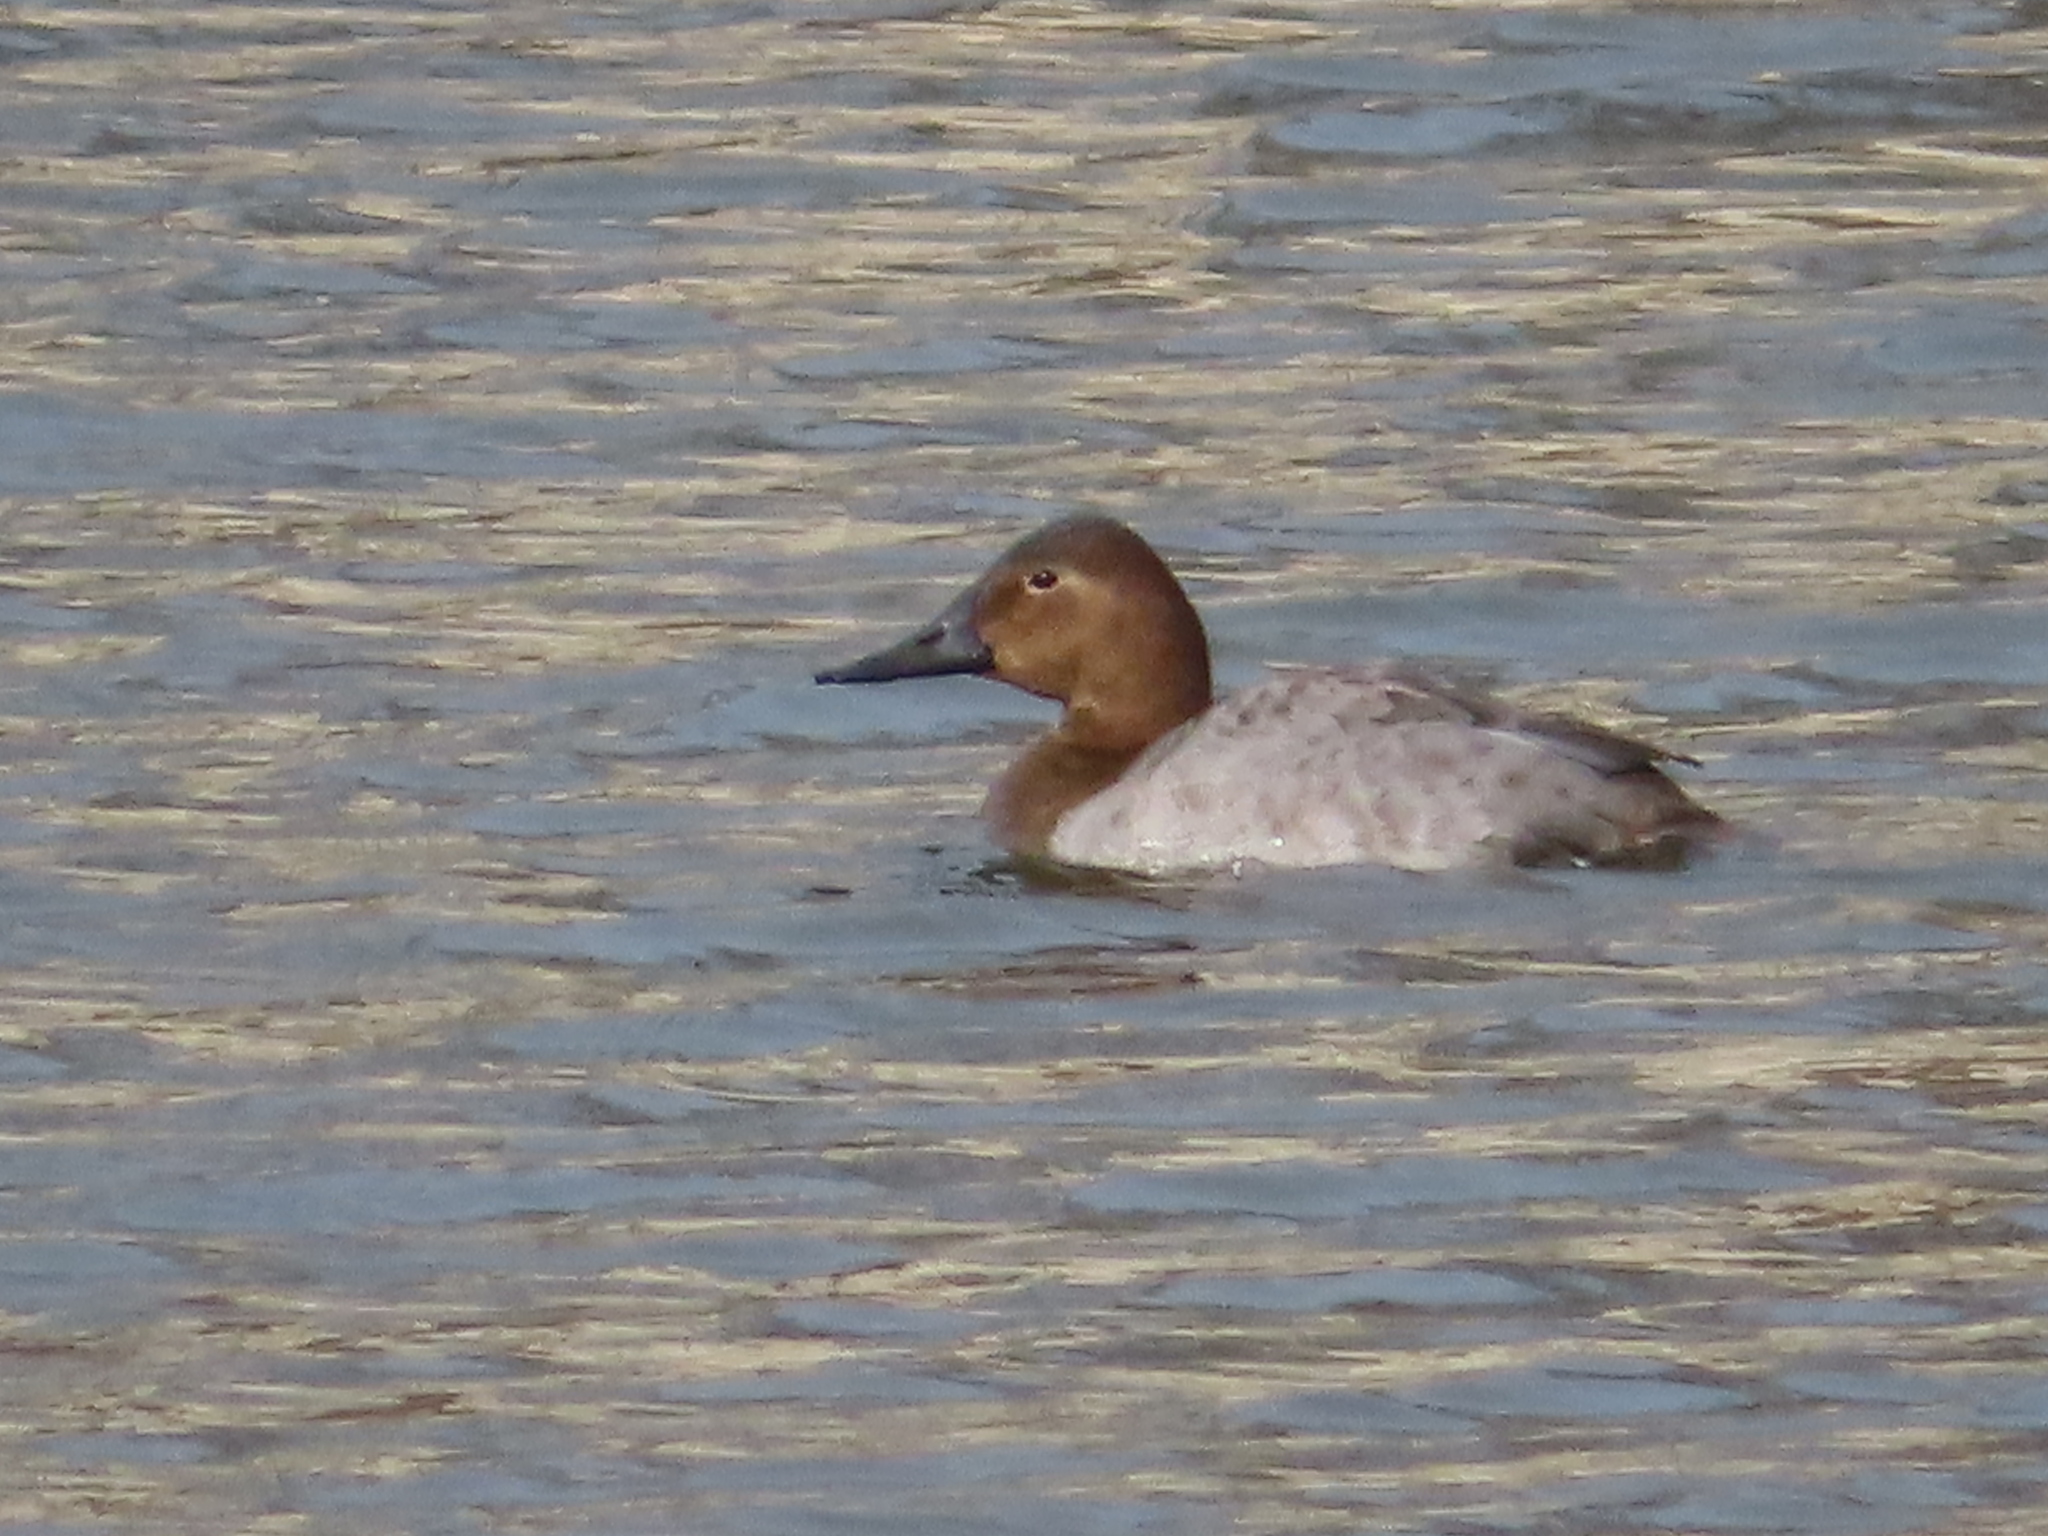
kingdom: Animalia
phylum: Chordata
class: Aves
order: Anseriformes
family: Anatidae
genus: Aythya
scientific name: Aythya valisineria
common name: Canvasback
